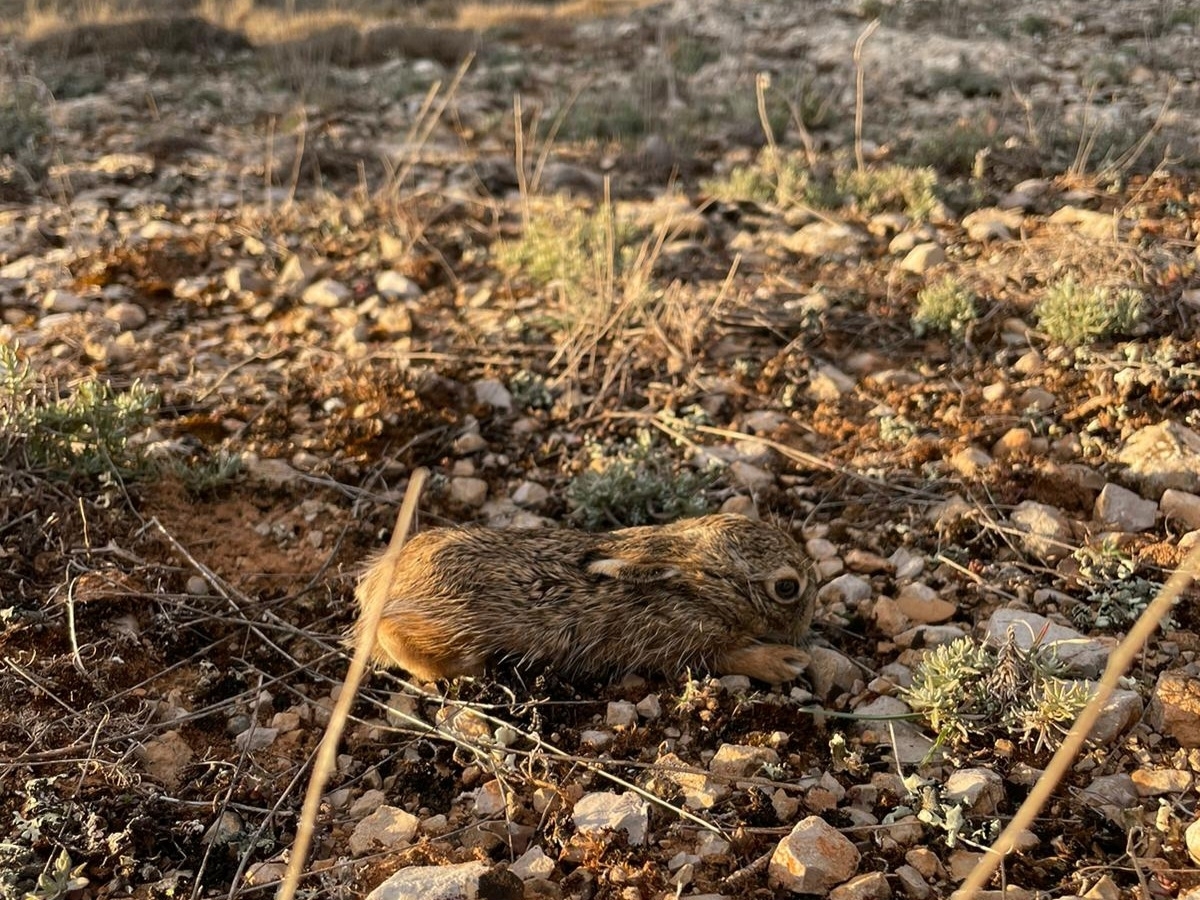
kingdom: Animalia
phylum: Chordata
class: Mammalia
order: Lagomorpha
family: Leporidae
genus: Lepus
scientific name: Lepus europaeus
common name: European hare
